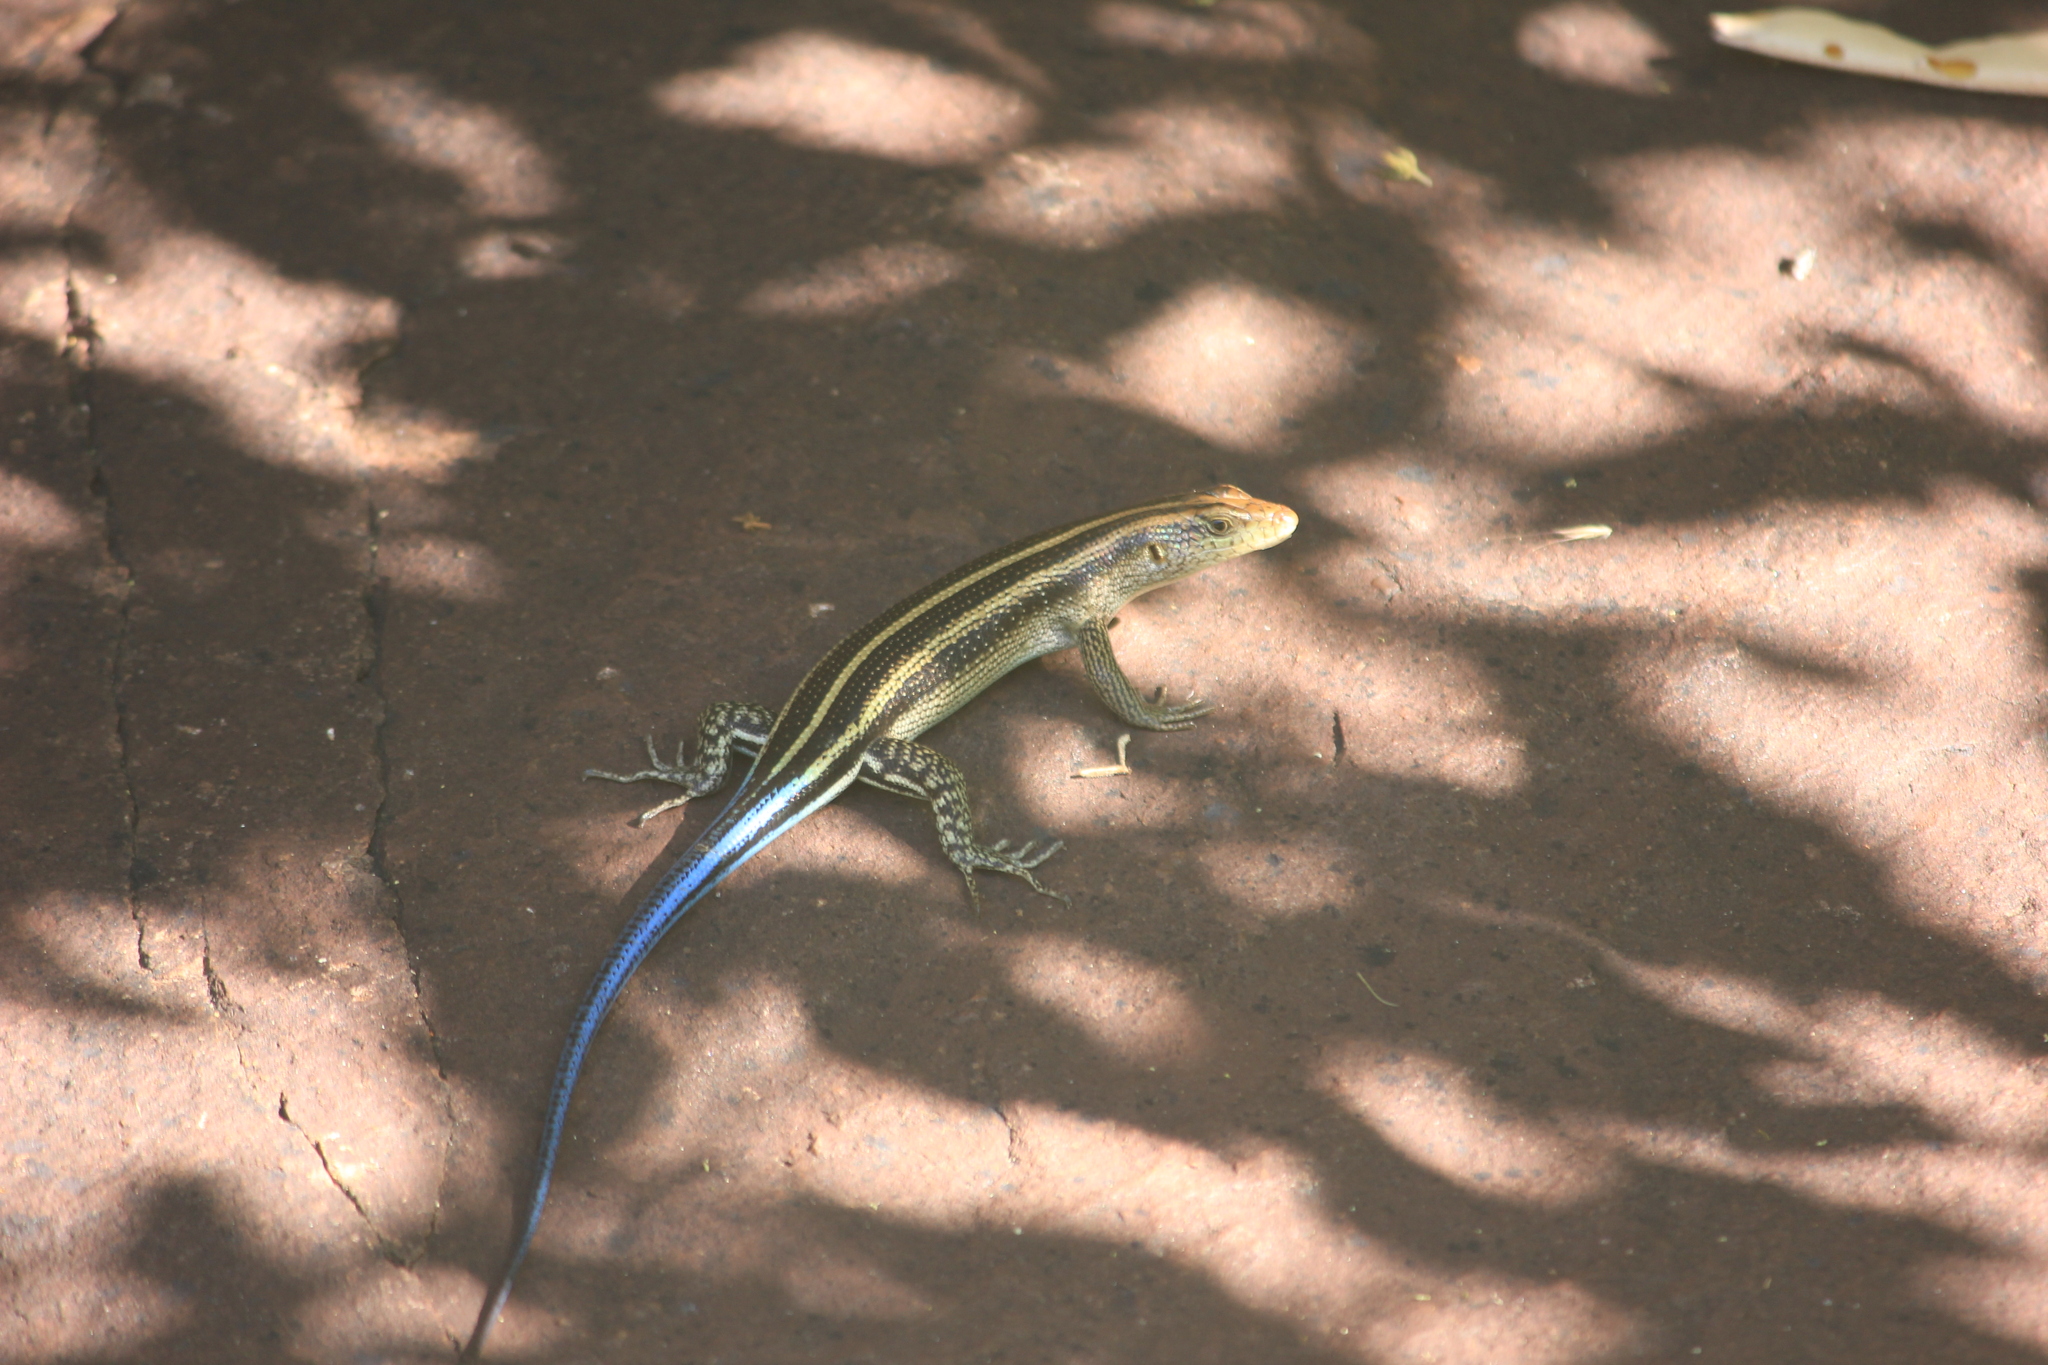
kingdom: Animalia
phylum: Chordata
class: Squamata
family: Scincidae
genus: Trachylepis
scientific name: Trachylepis margaritifera
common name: Rainbow skink
